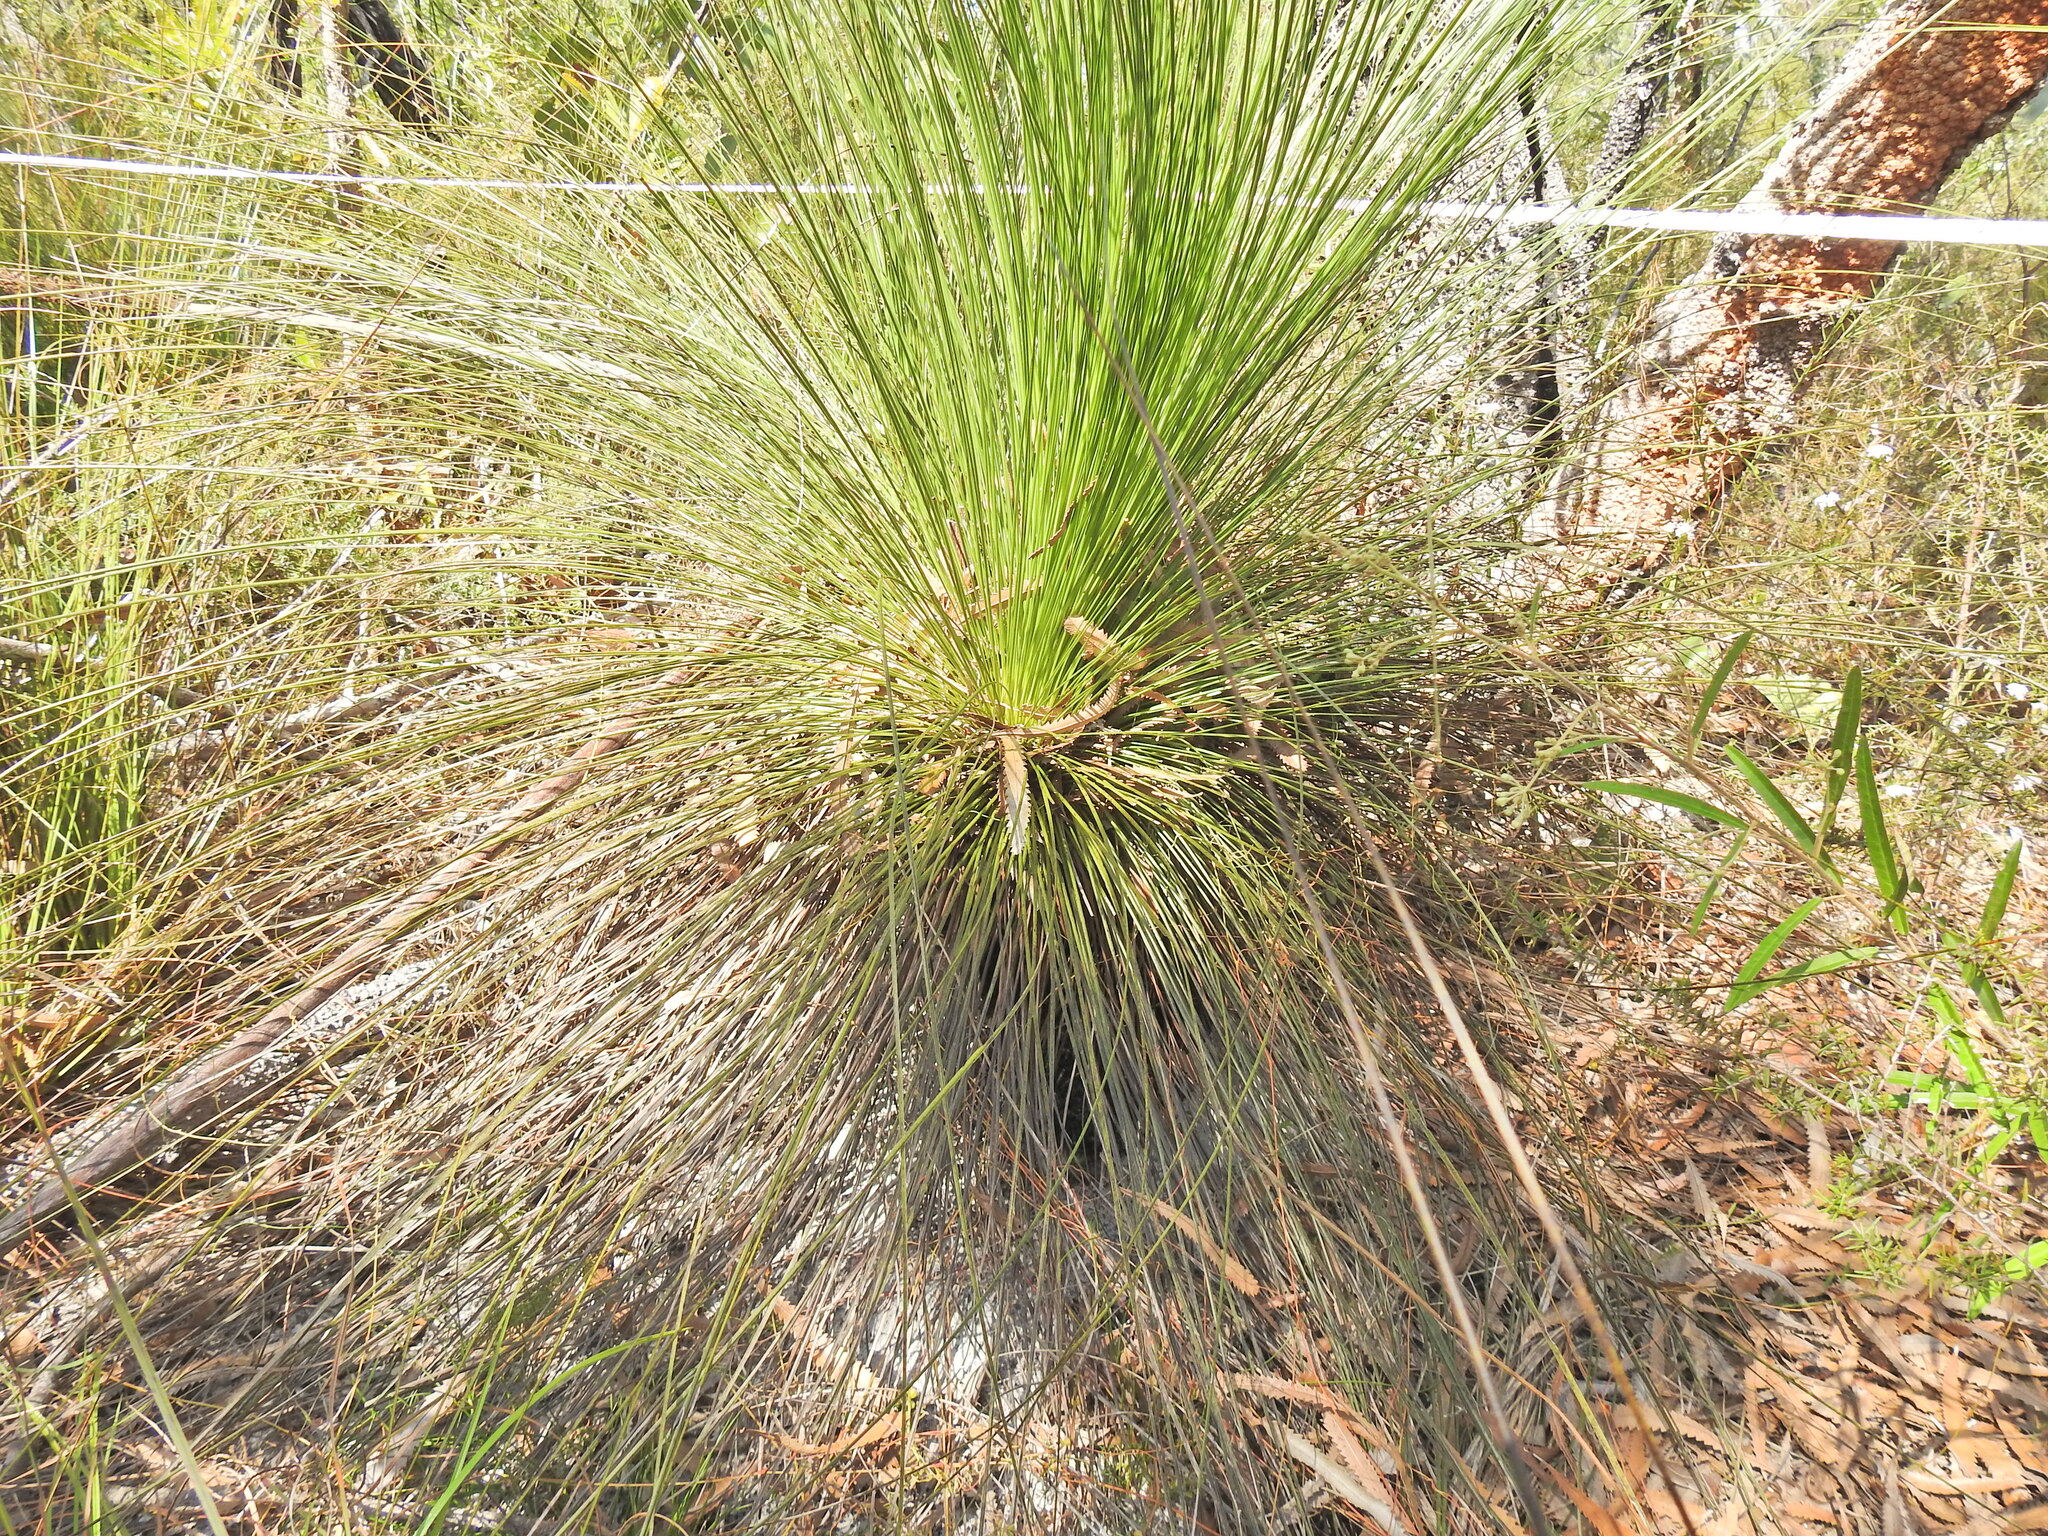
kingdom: Plantae
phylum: Tracheophyta
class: Liliopsida
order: Asparagales
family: Asphodelaceae
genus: Xanthorrhoea
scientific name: Xanthorrhoea johnsonii
